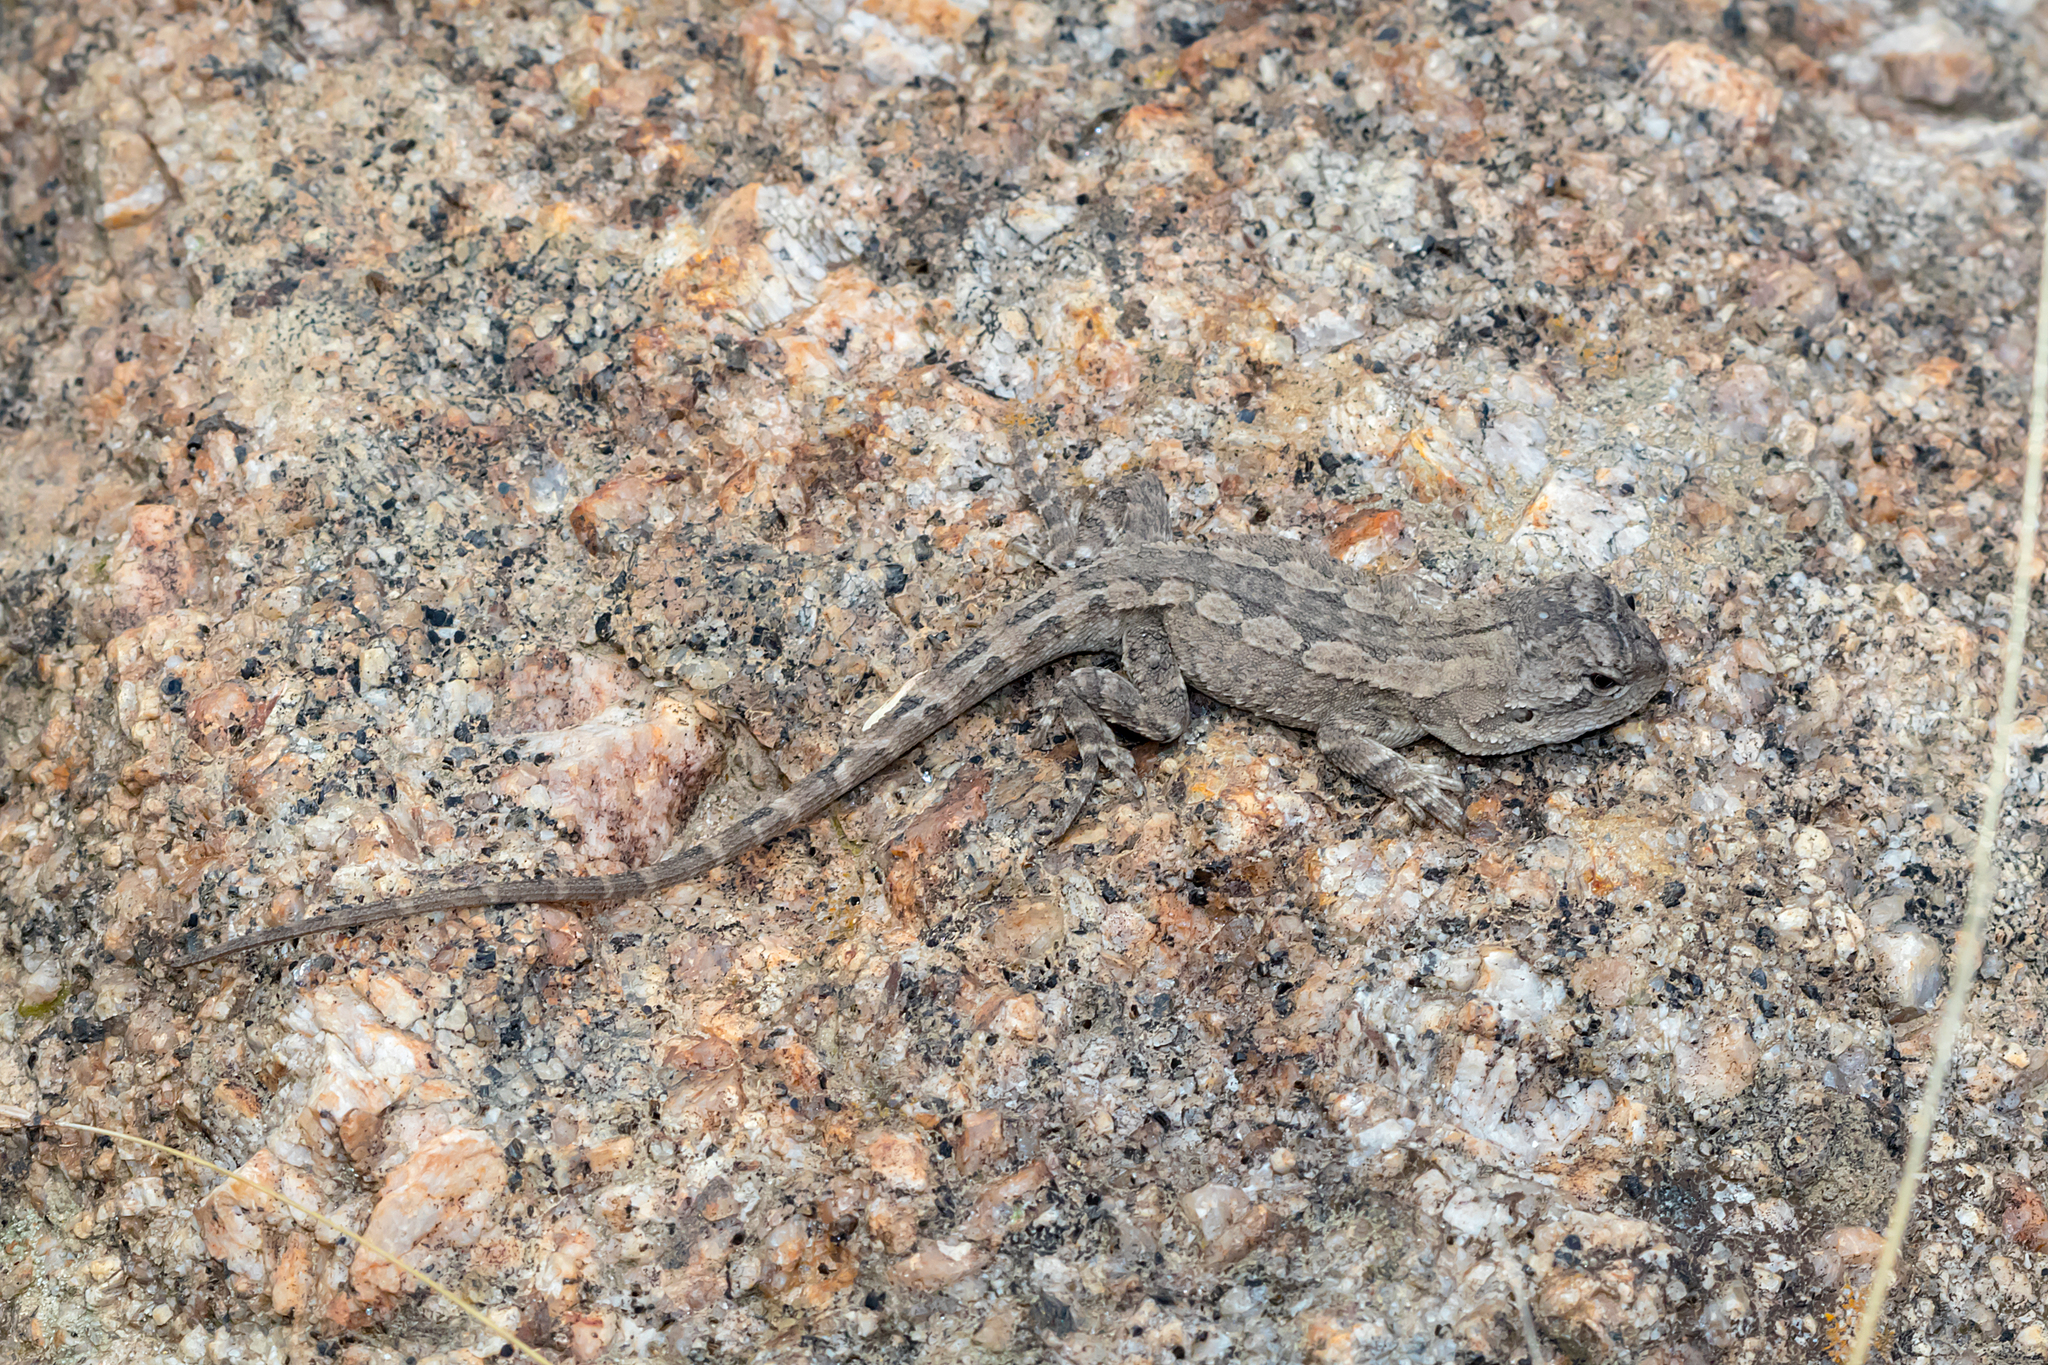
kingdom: Animalia
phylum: Chordata
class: Squamata
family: Agamidae
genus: Amphibolurus
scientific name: Amphibolurus muricatus
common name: Jacky lizard
